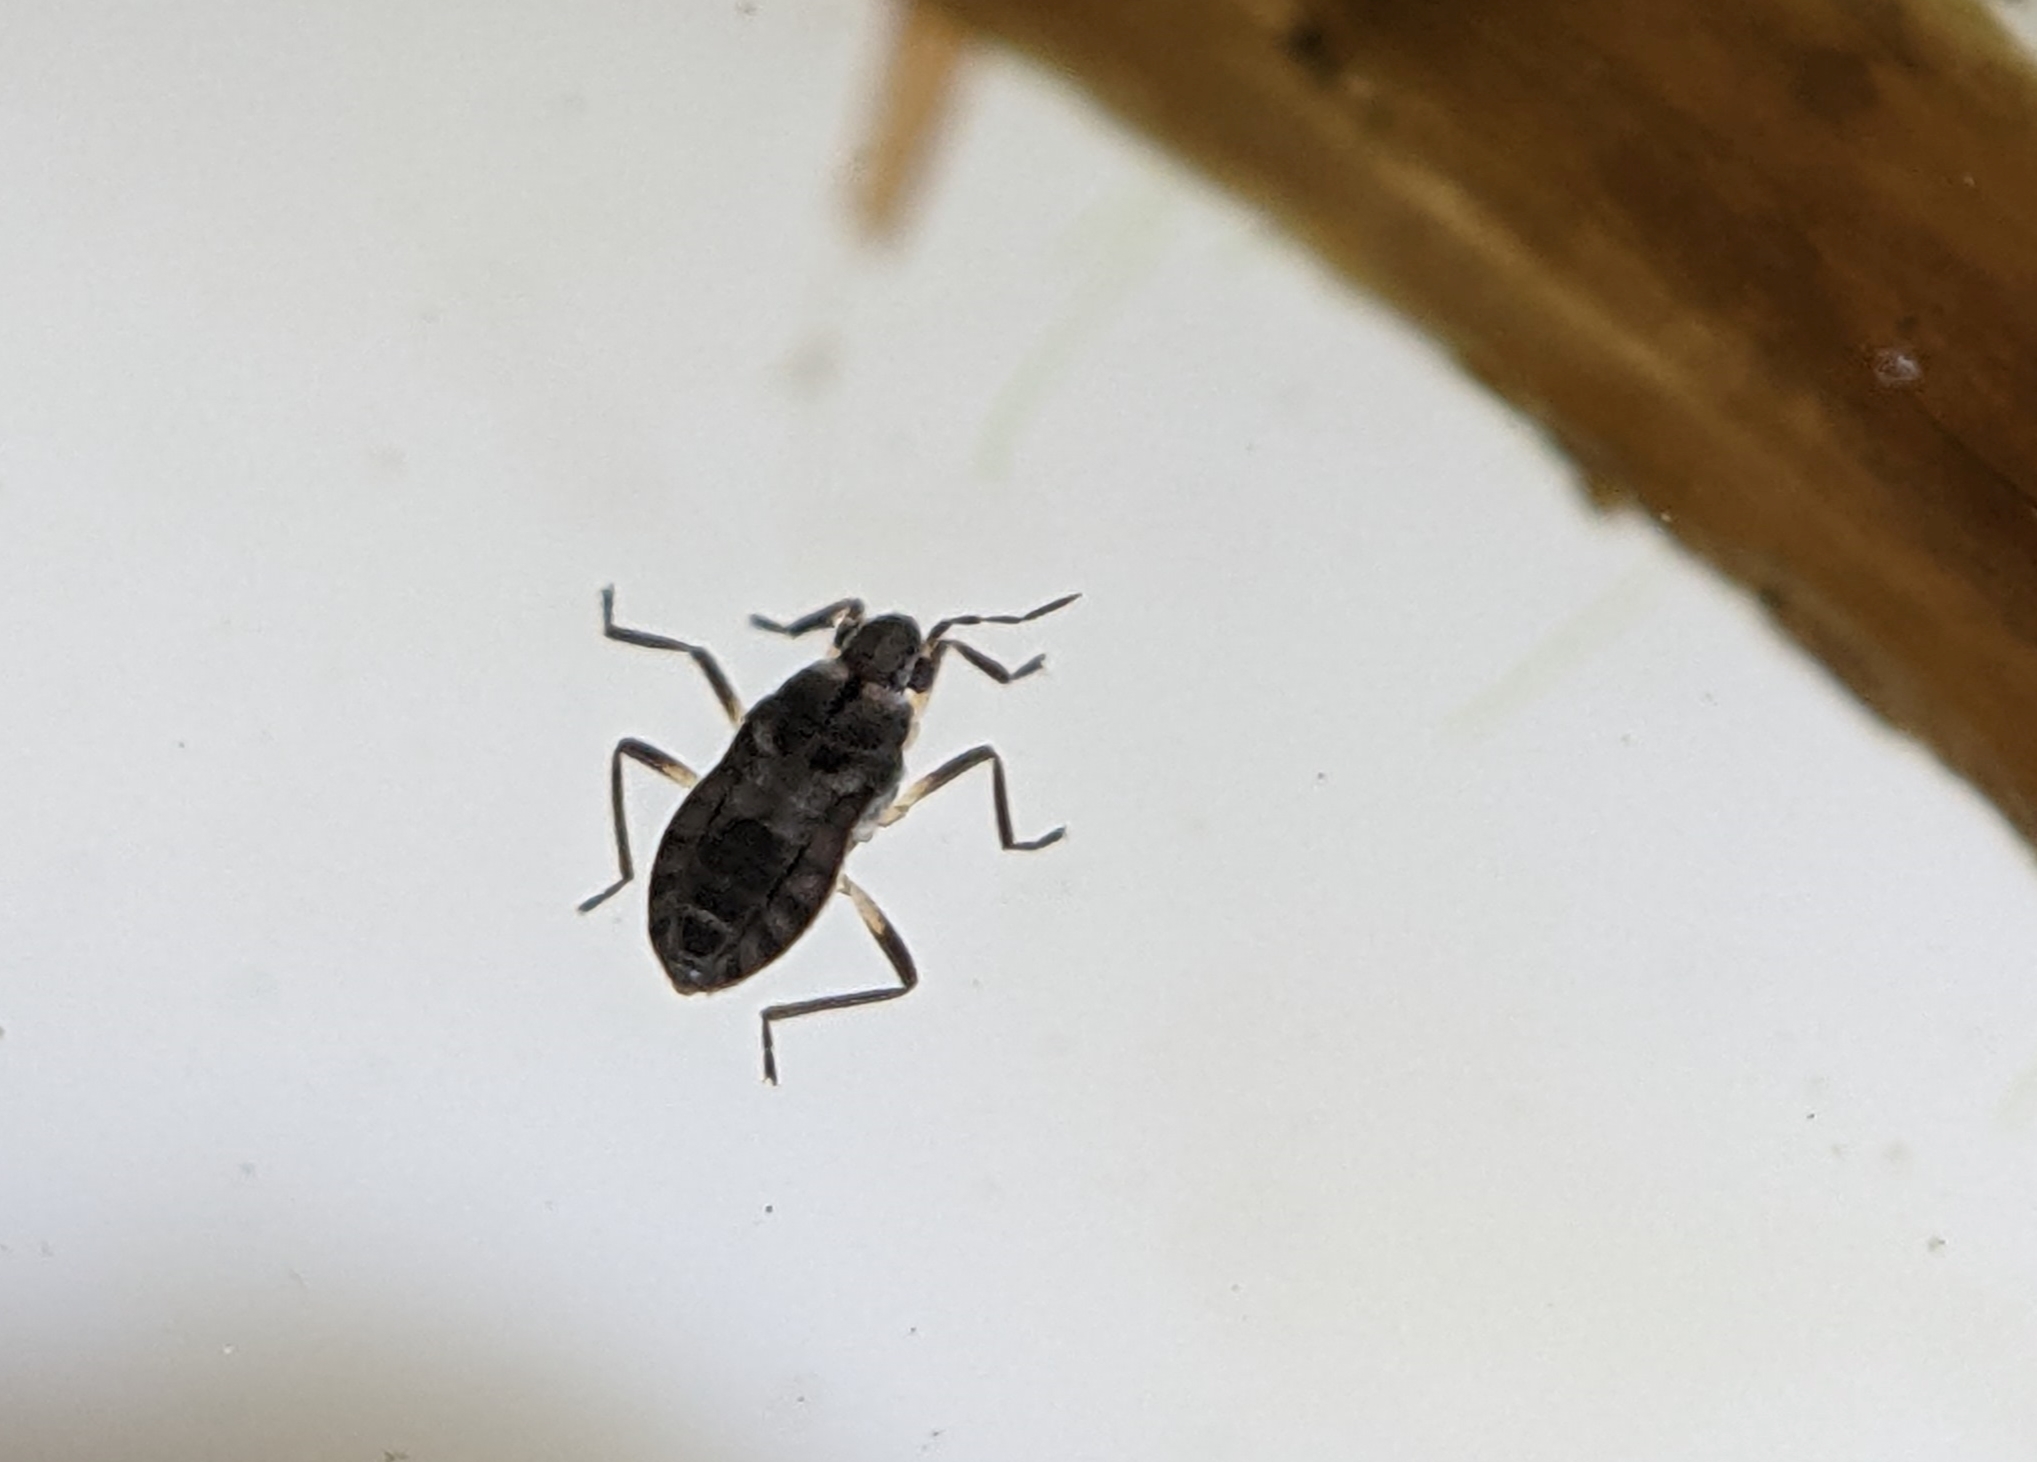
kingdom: Animalia
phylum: Arthropoda
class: Insecta
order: Hemiptera
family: Veliidae
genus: Microvelia
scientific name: Microvelia
